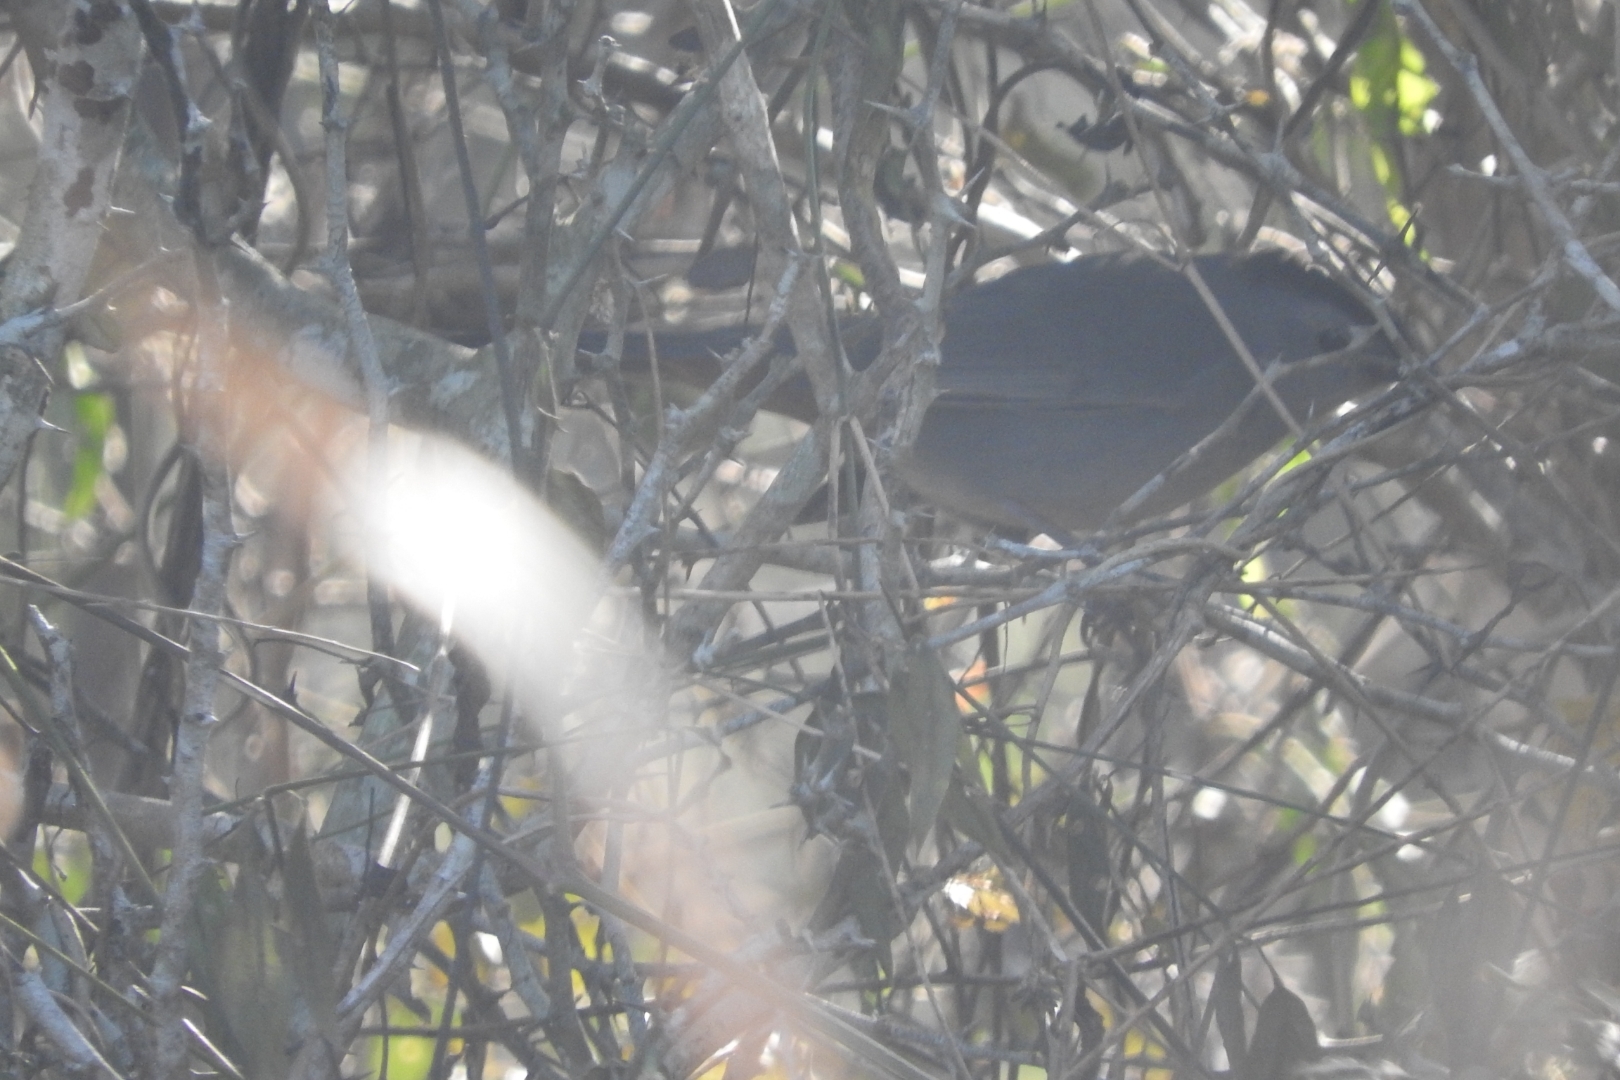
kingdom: Animalia
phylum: Chordata
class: Aves
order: Passeriformes
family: Mimidae
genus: Dumetella
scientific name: Dumetella carolinensis
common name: Gray catbird
